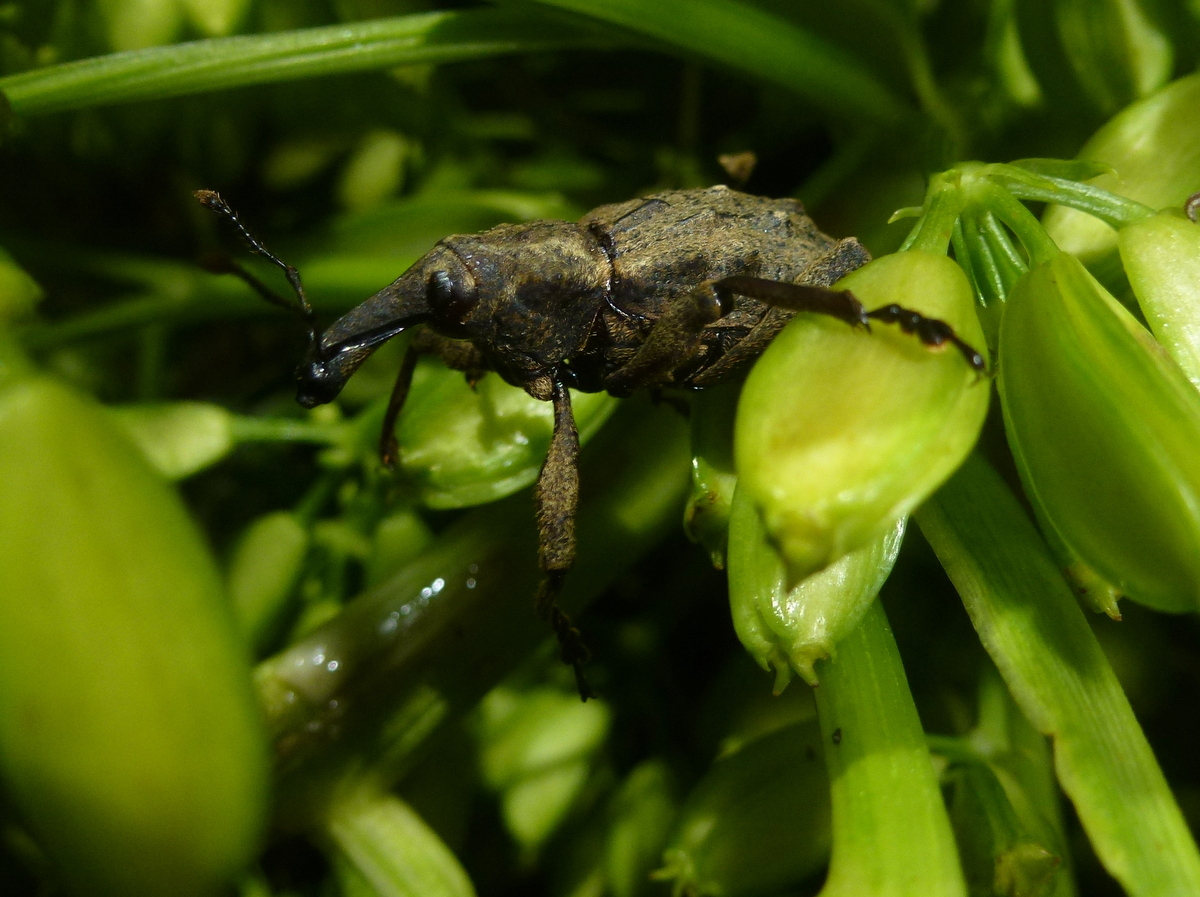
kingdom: Animalia
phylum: Arthropoda
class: Insecta
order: Coleoptera
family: Curculionidae
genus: Hadramphus
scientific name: Hadramphus spinipennis
